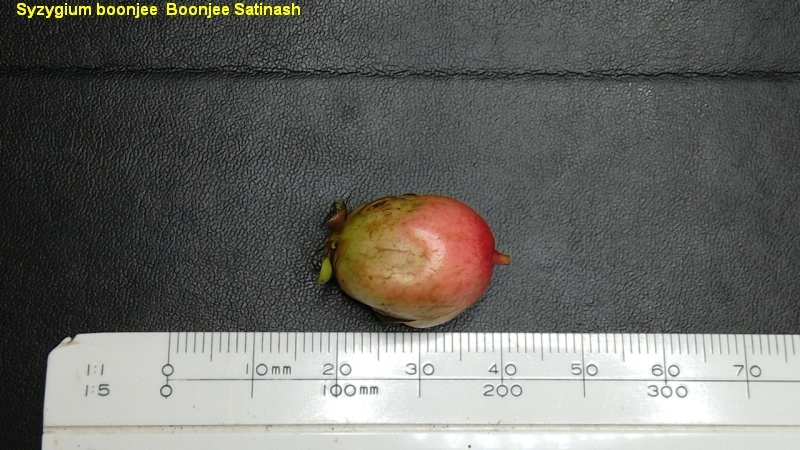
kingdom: Plantae
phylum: Tracheophyta
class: Magnoliopsida
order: Myrtales
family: Myrtaceae
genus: Syzygium
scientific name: Syzygium boonjee
